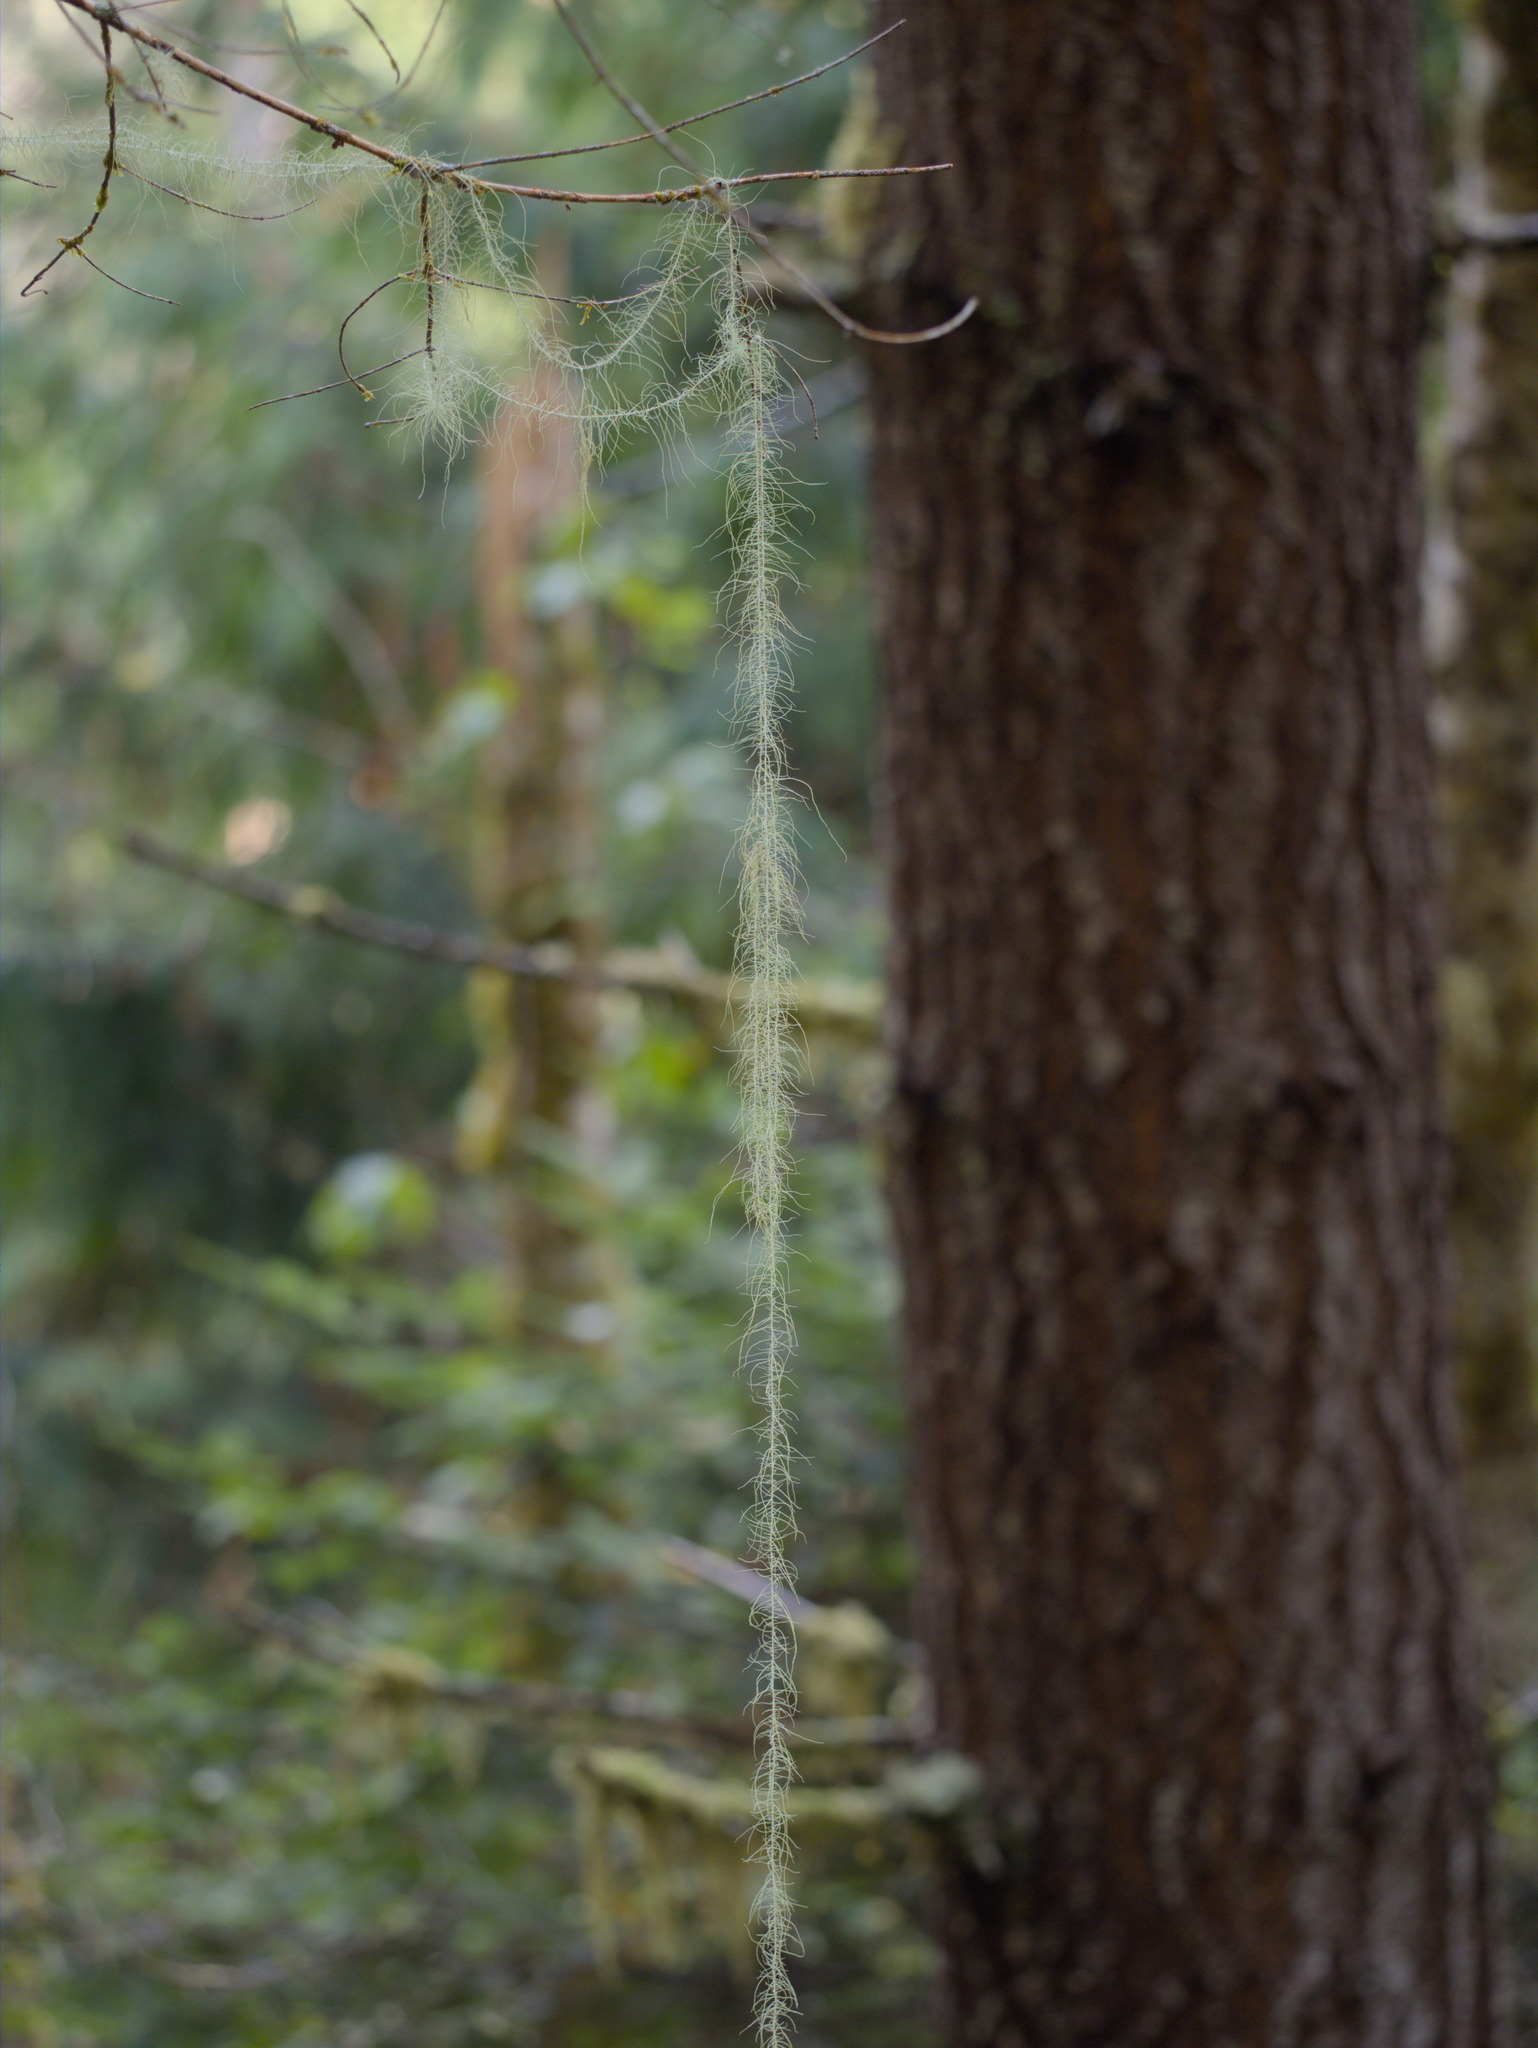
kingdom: Fungi
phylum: Ascomycota
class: Lecanoromycetes
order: Lecanorales
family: Parmeliaceae
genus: Dolichousnea
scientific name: Dolichousnea longissima
